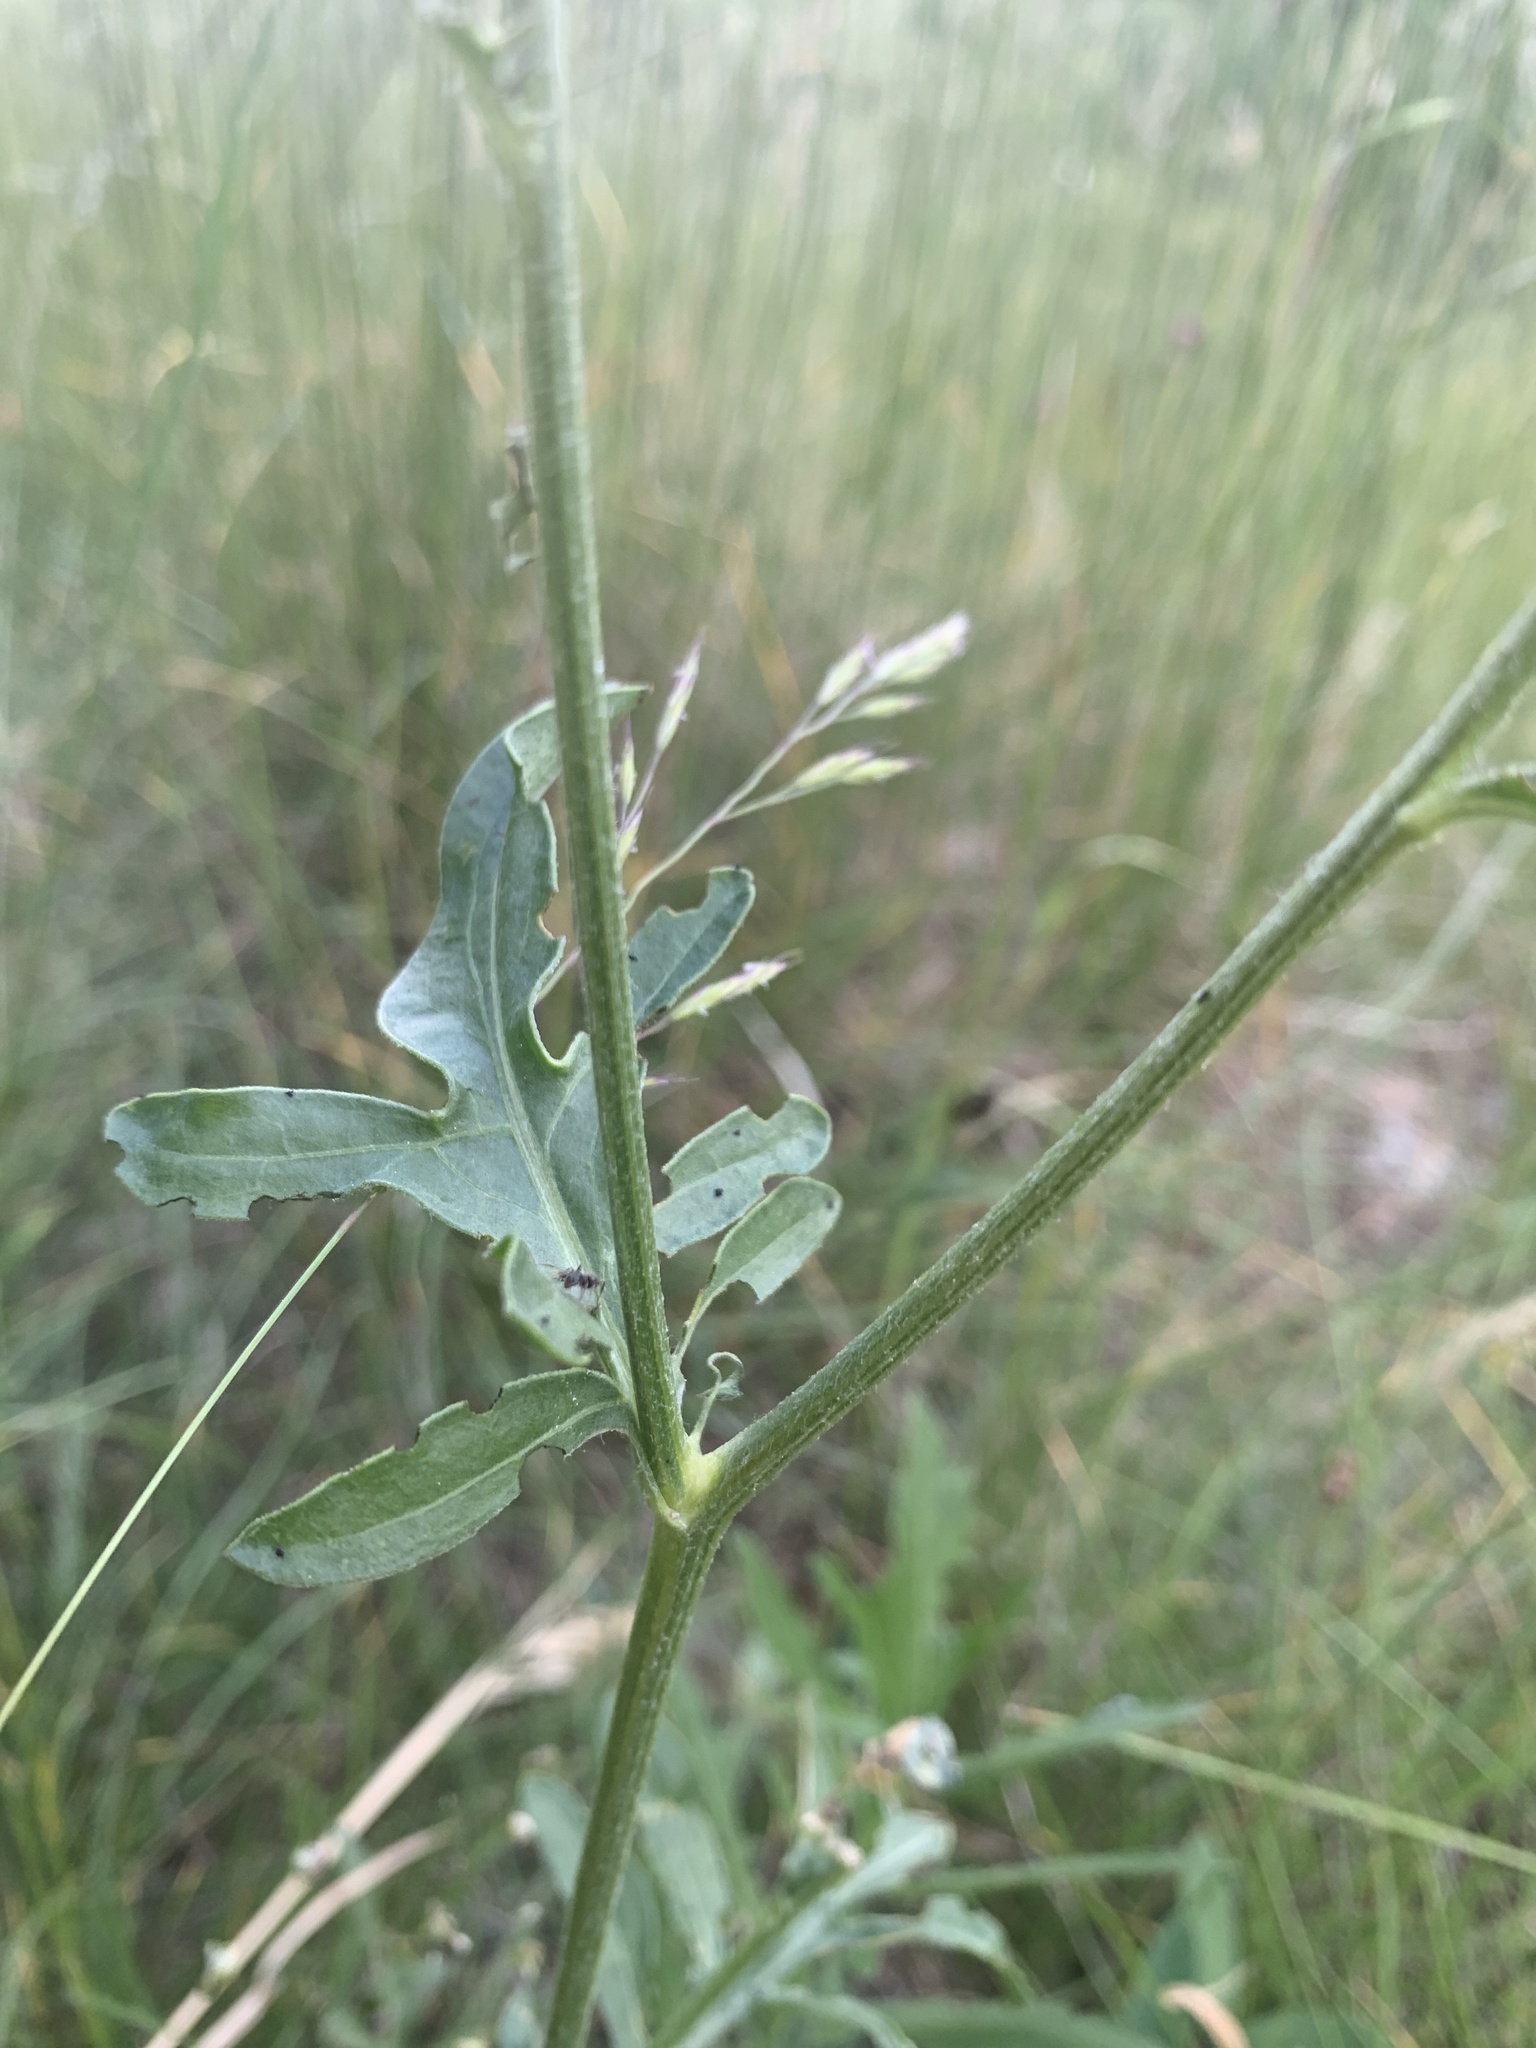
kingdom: Plantae
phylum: Tracheophyta
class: Magnoliopsida
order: Asterales
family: Asteraceae
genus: Centaurea
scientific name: Centaurea scabiosa
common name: Greater knapweed
